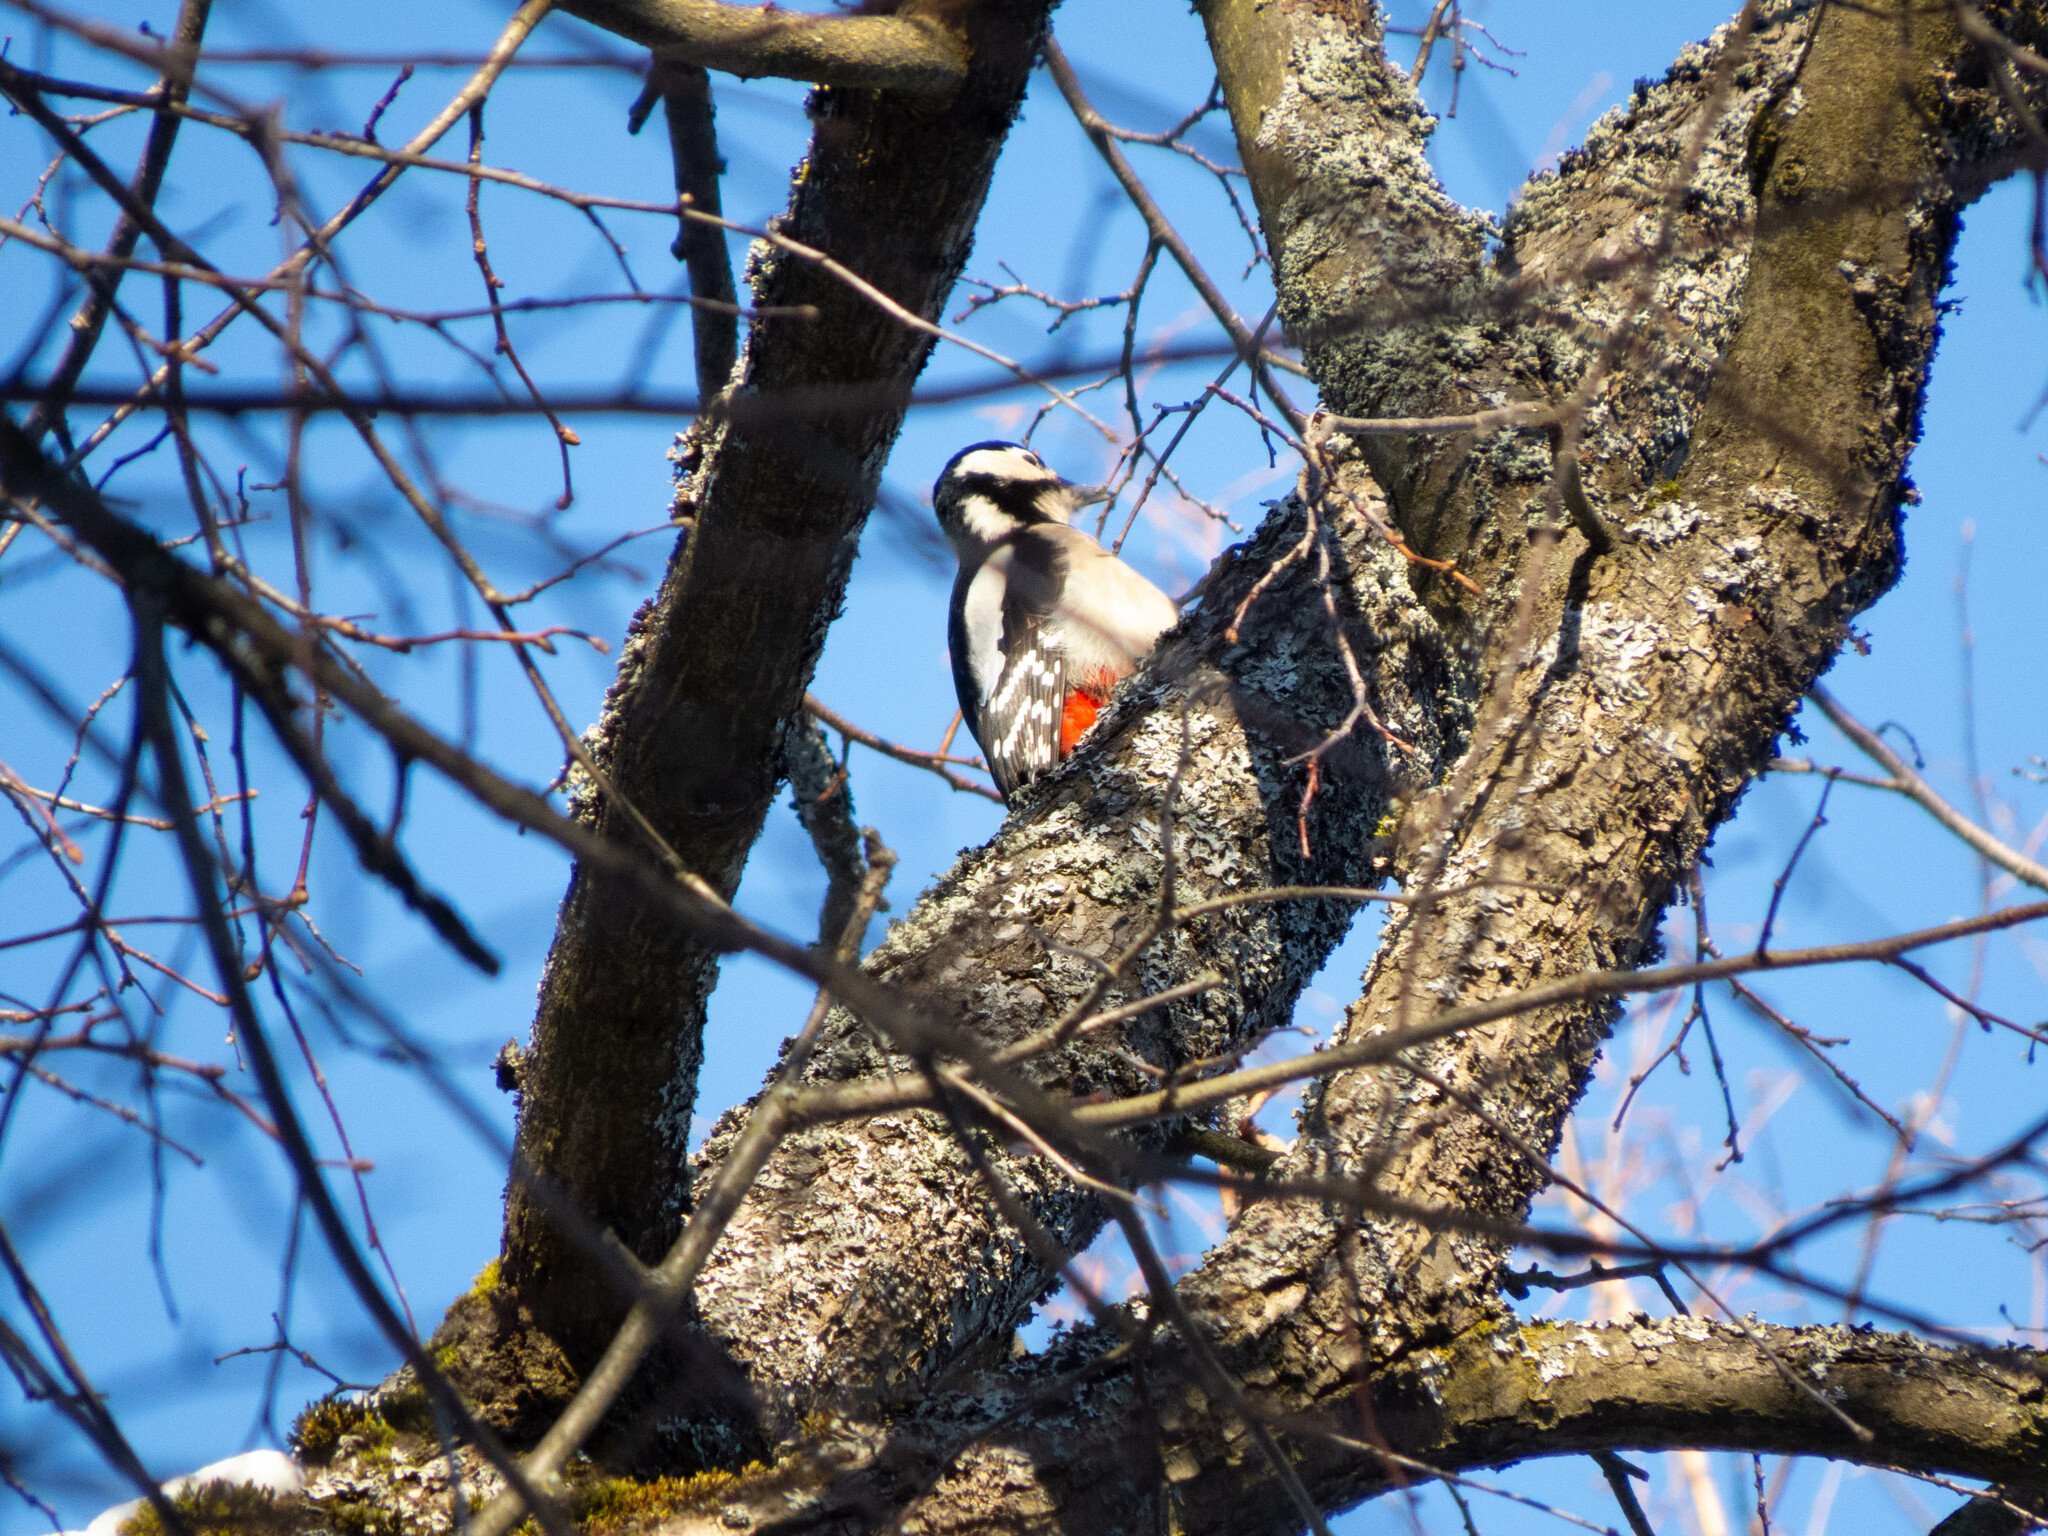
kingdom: Animalia
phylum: Chordata
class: Aves
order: Piciformes
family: Picidae
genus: Dendrocopos
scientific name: Dendrocopos major
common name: Great spotted woodpecker
